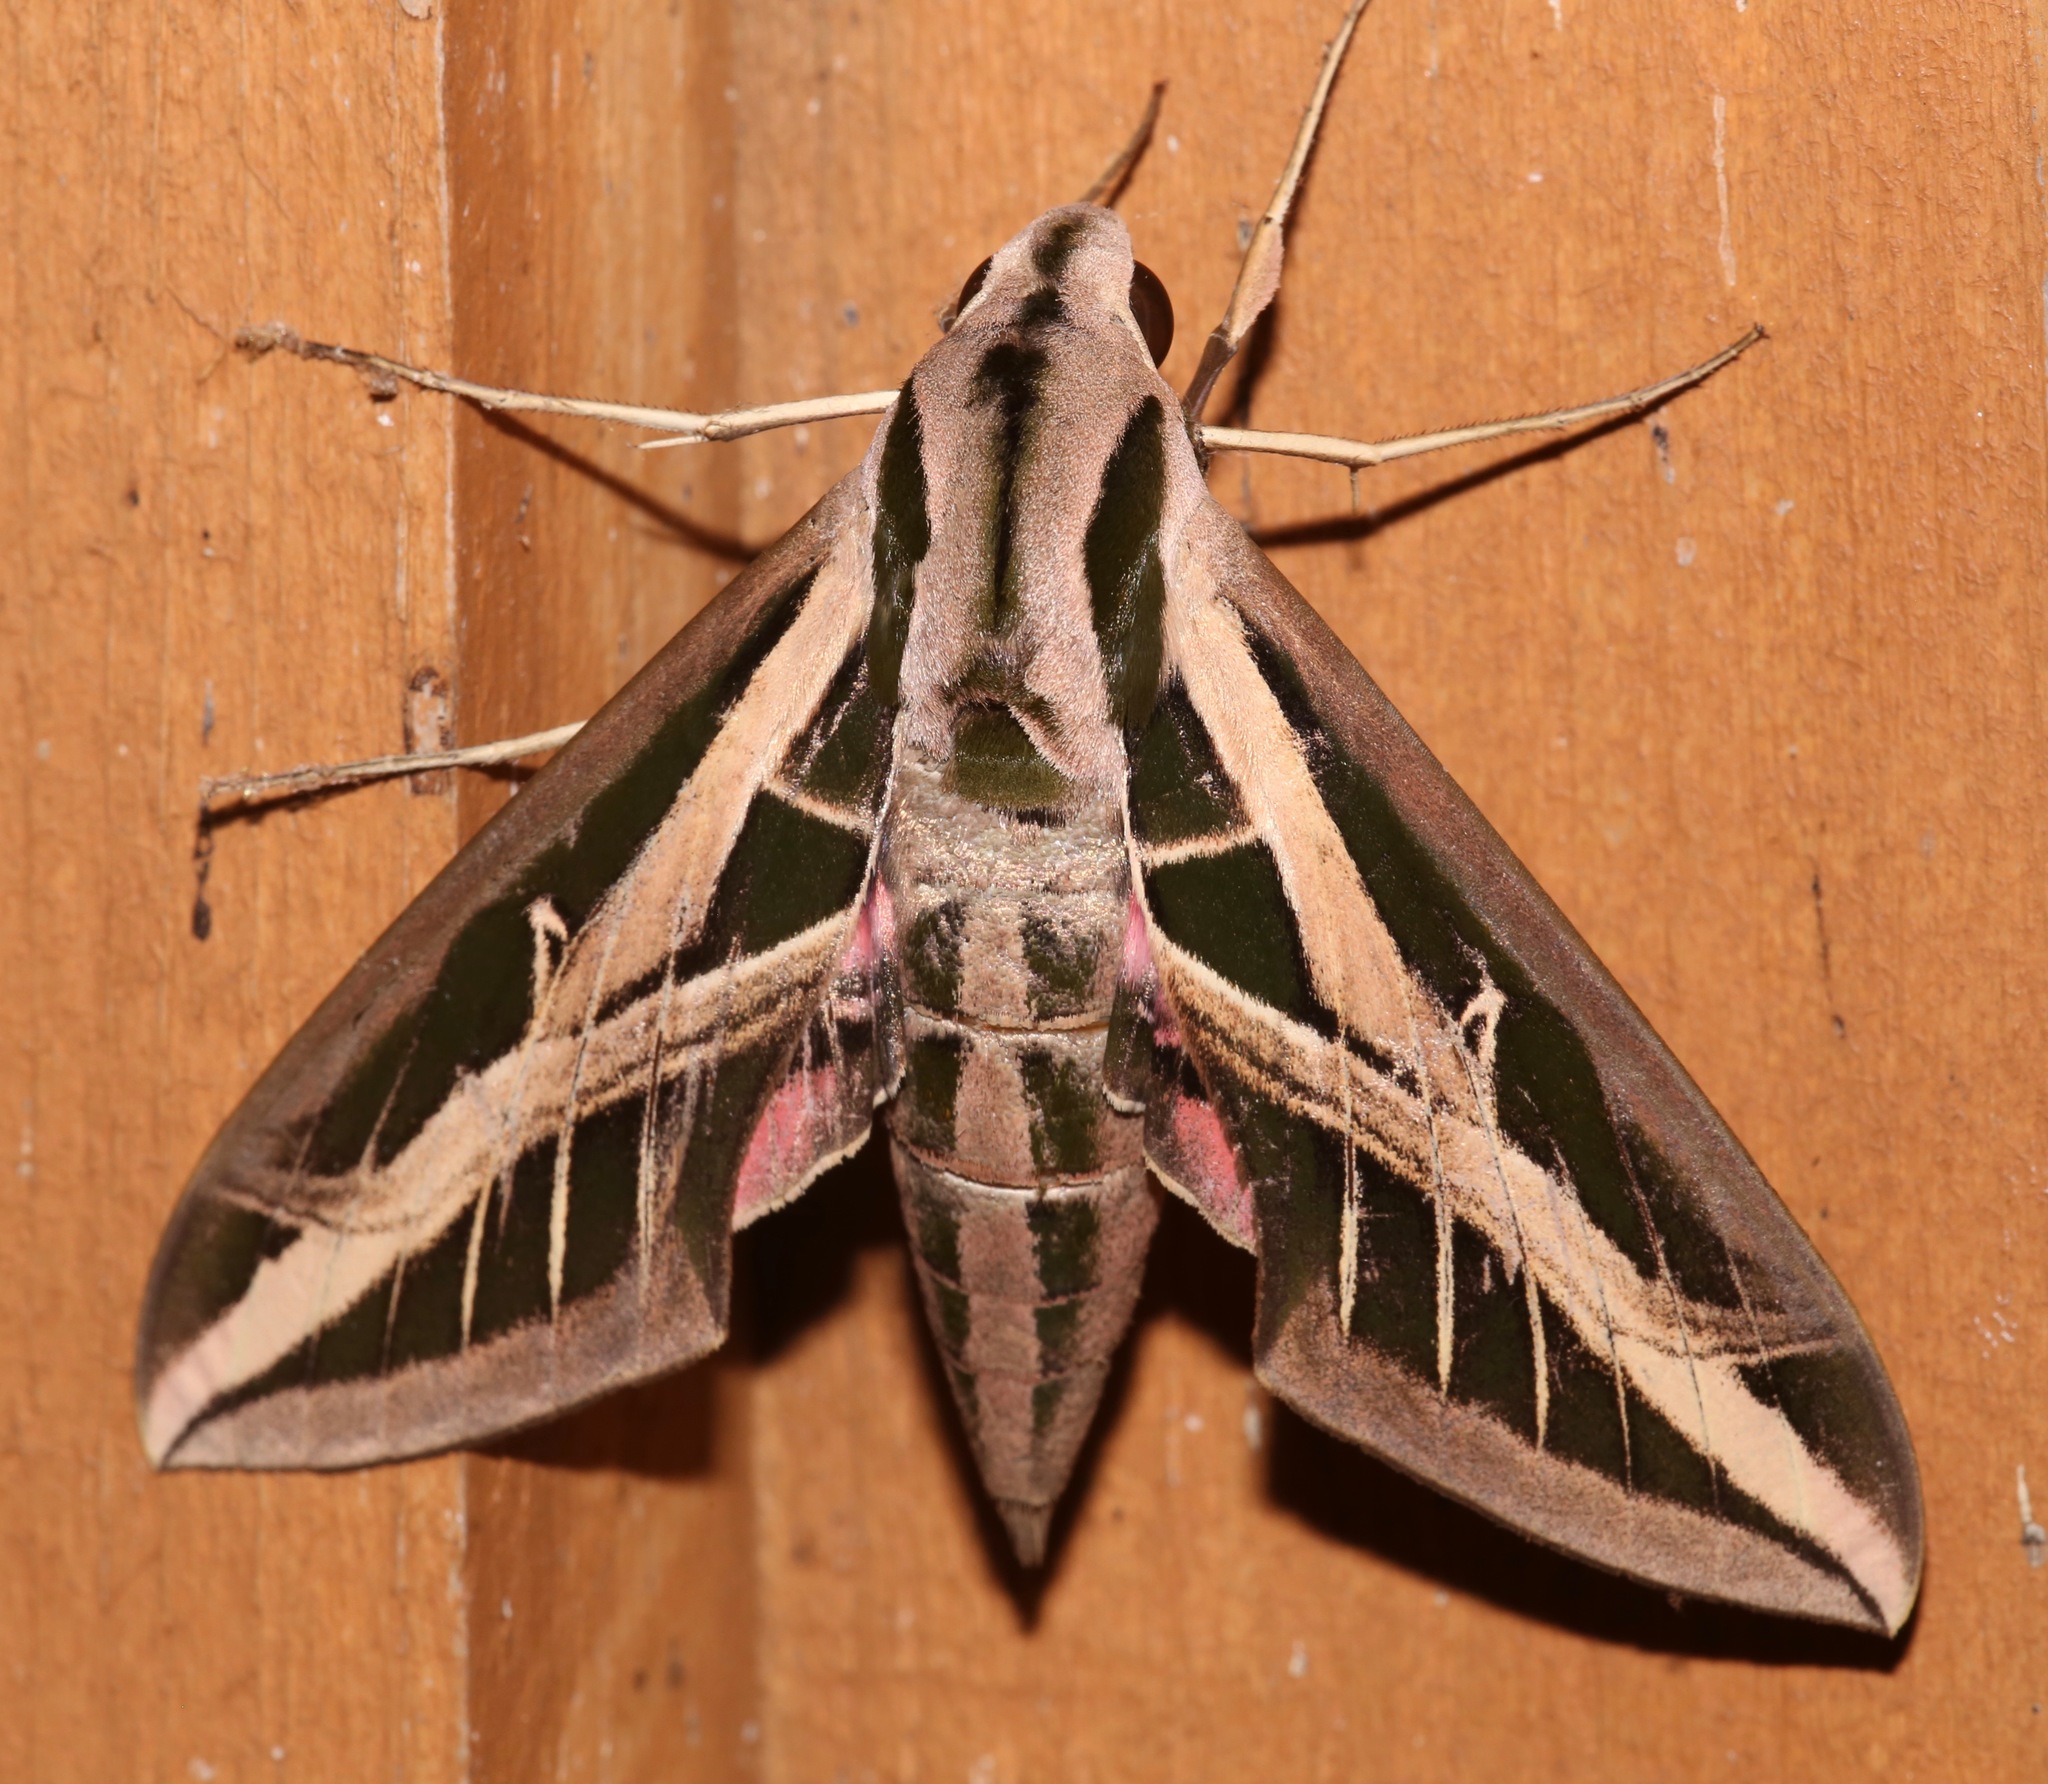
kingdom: Animalia
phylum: Arthropoda
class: Insecta
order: Lepidoptera
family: Sphingidae
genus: Eumorpha
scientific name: Eumorpha fasciatus
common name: Banded sphinx
